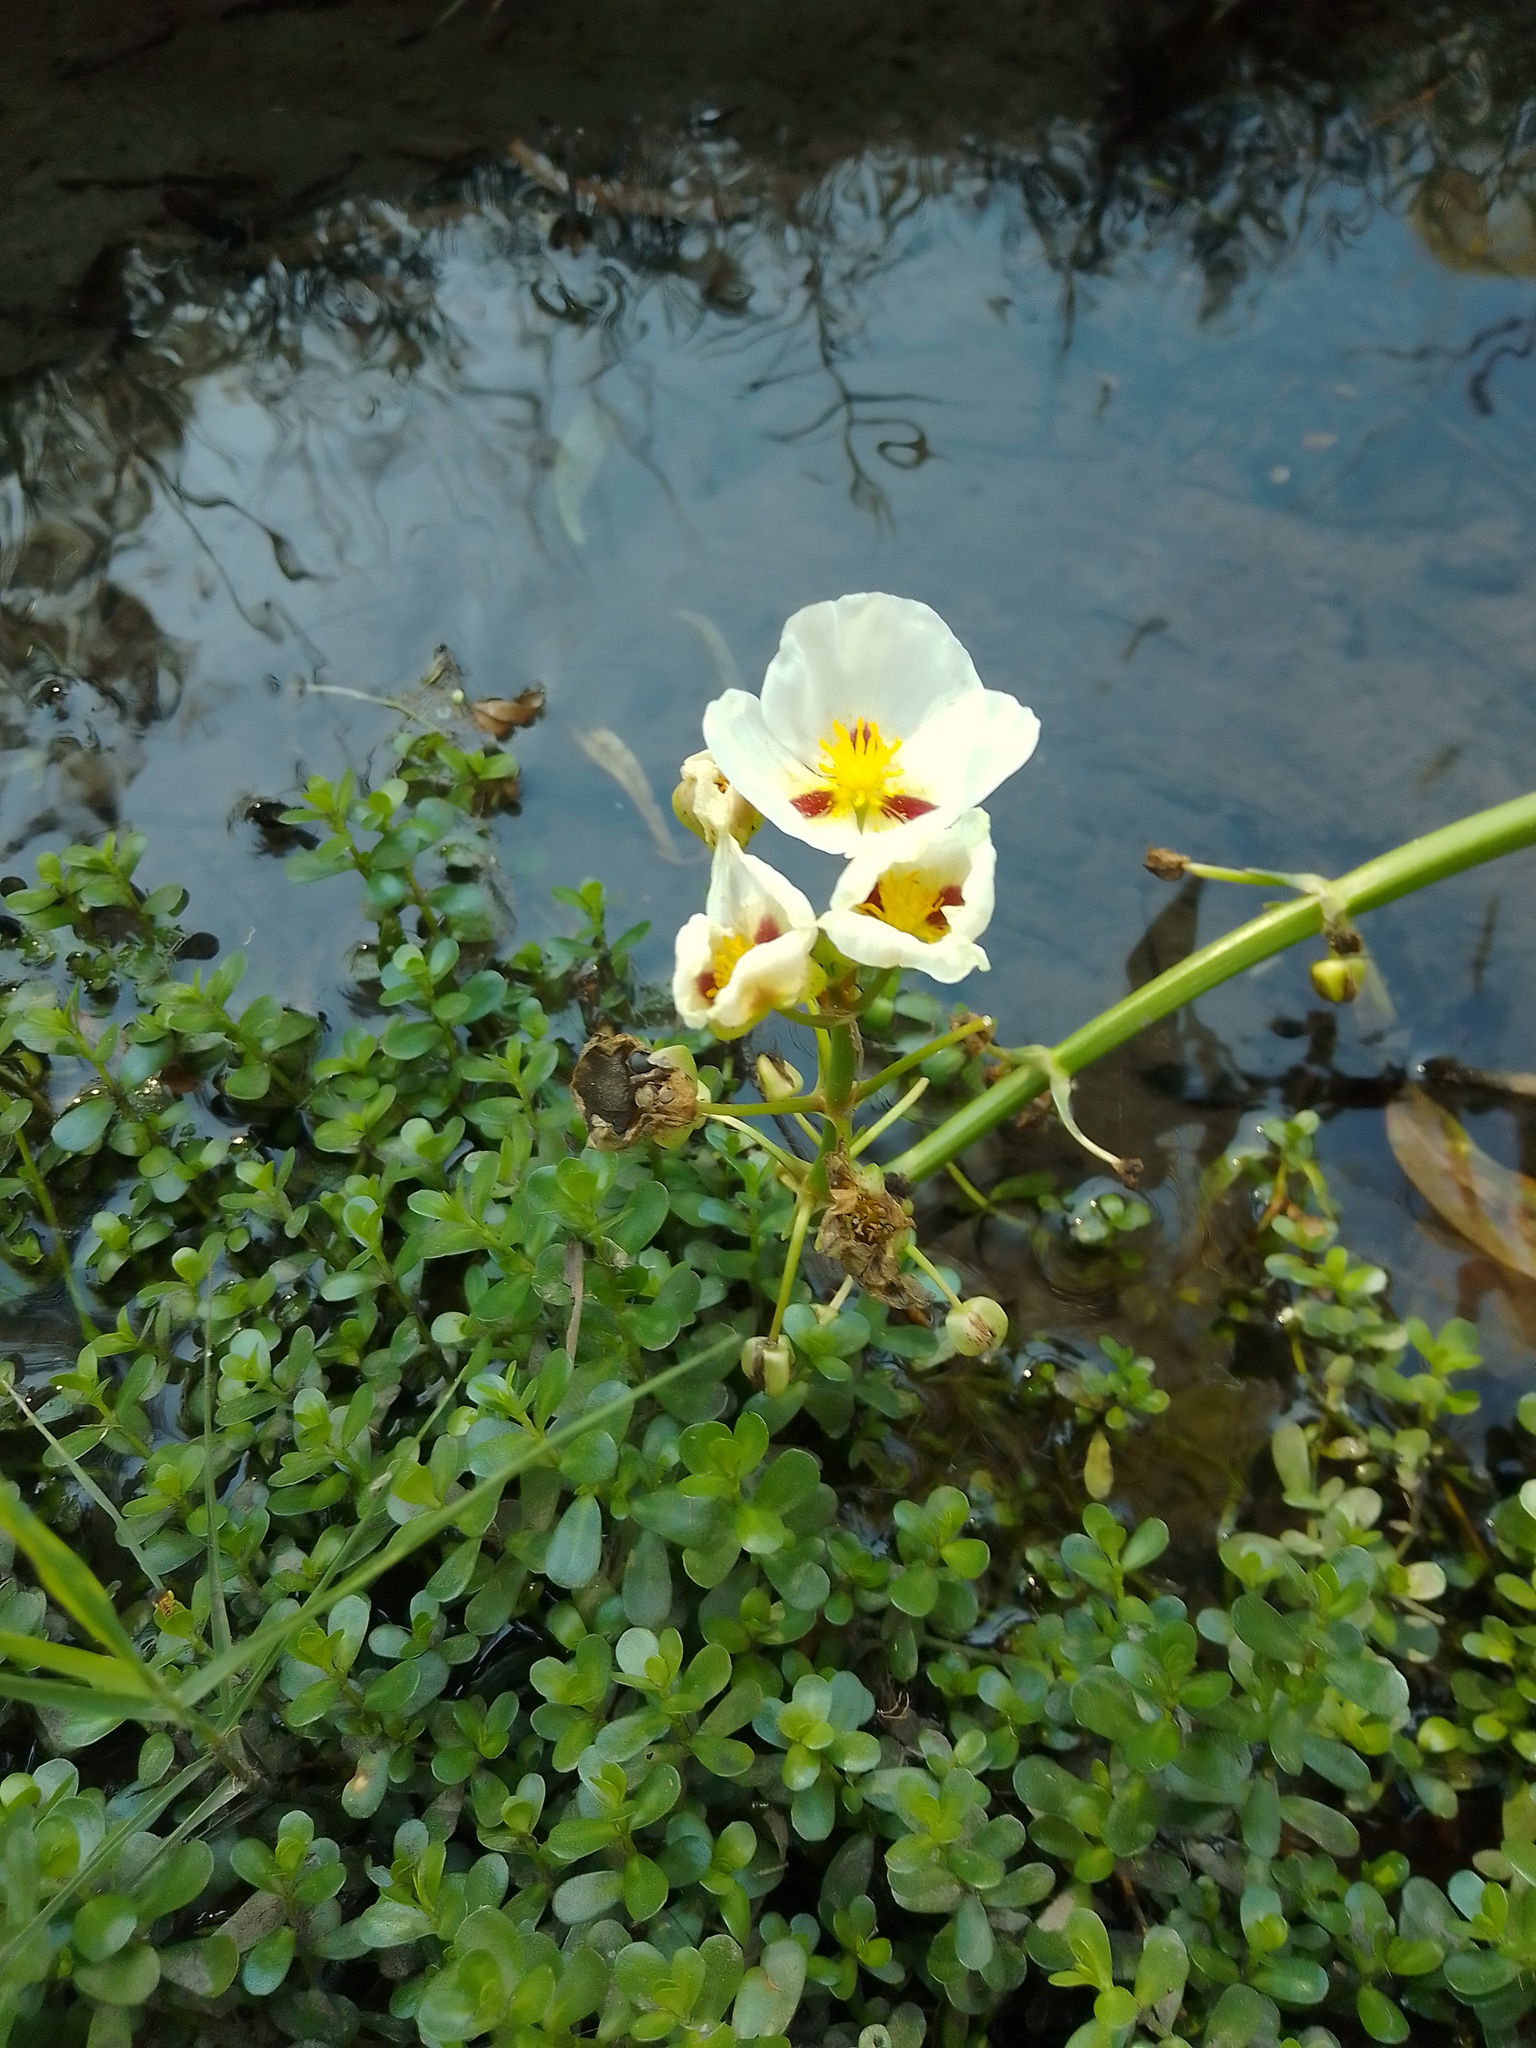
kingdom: Plantae
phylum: Tracheophyta
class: Liliopsida
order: Alismatales
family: Alismataceae
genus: Sagittaria
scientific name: Sagittaria montevidensis
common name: Giant arrowhead
